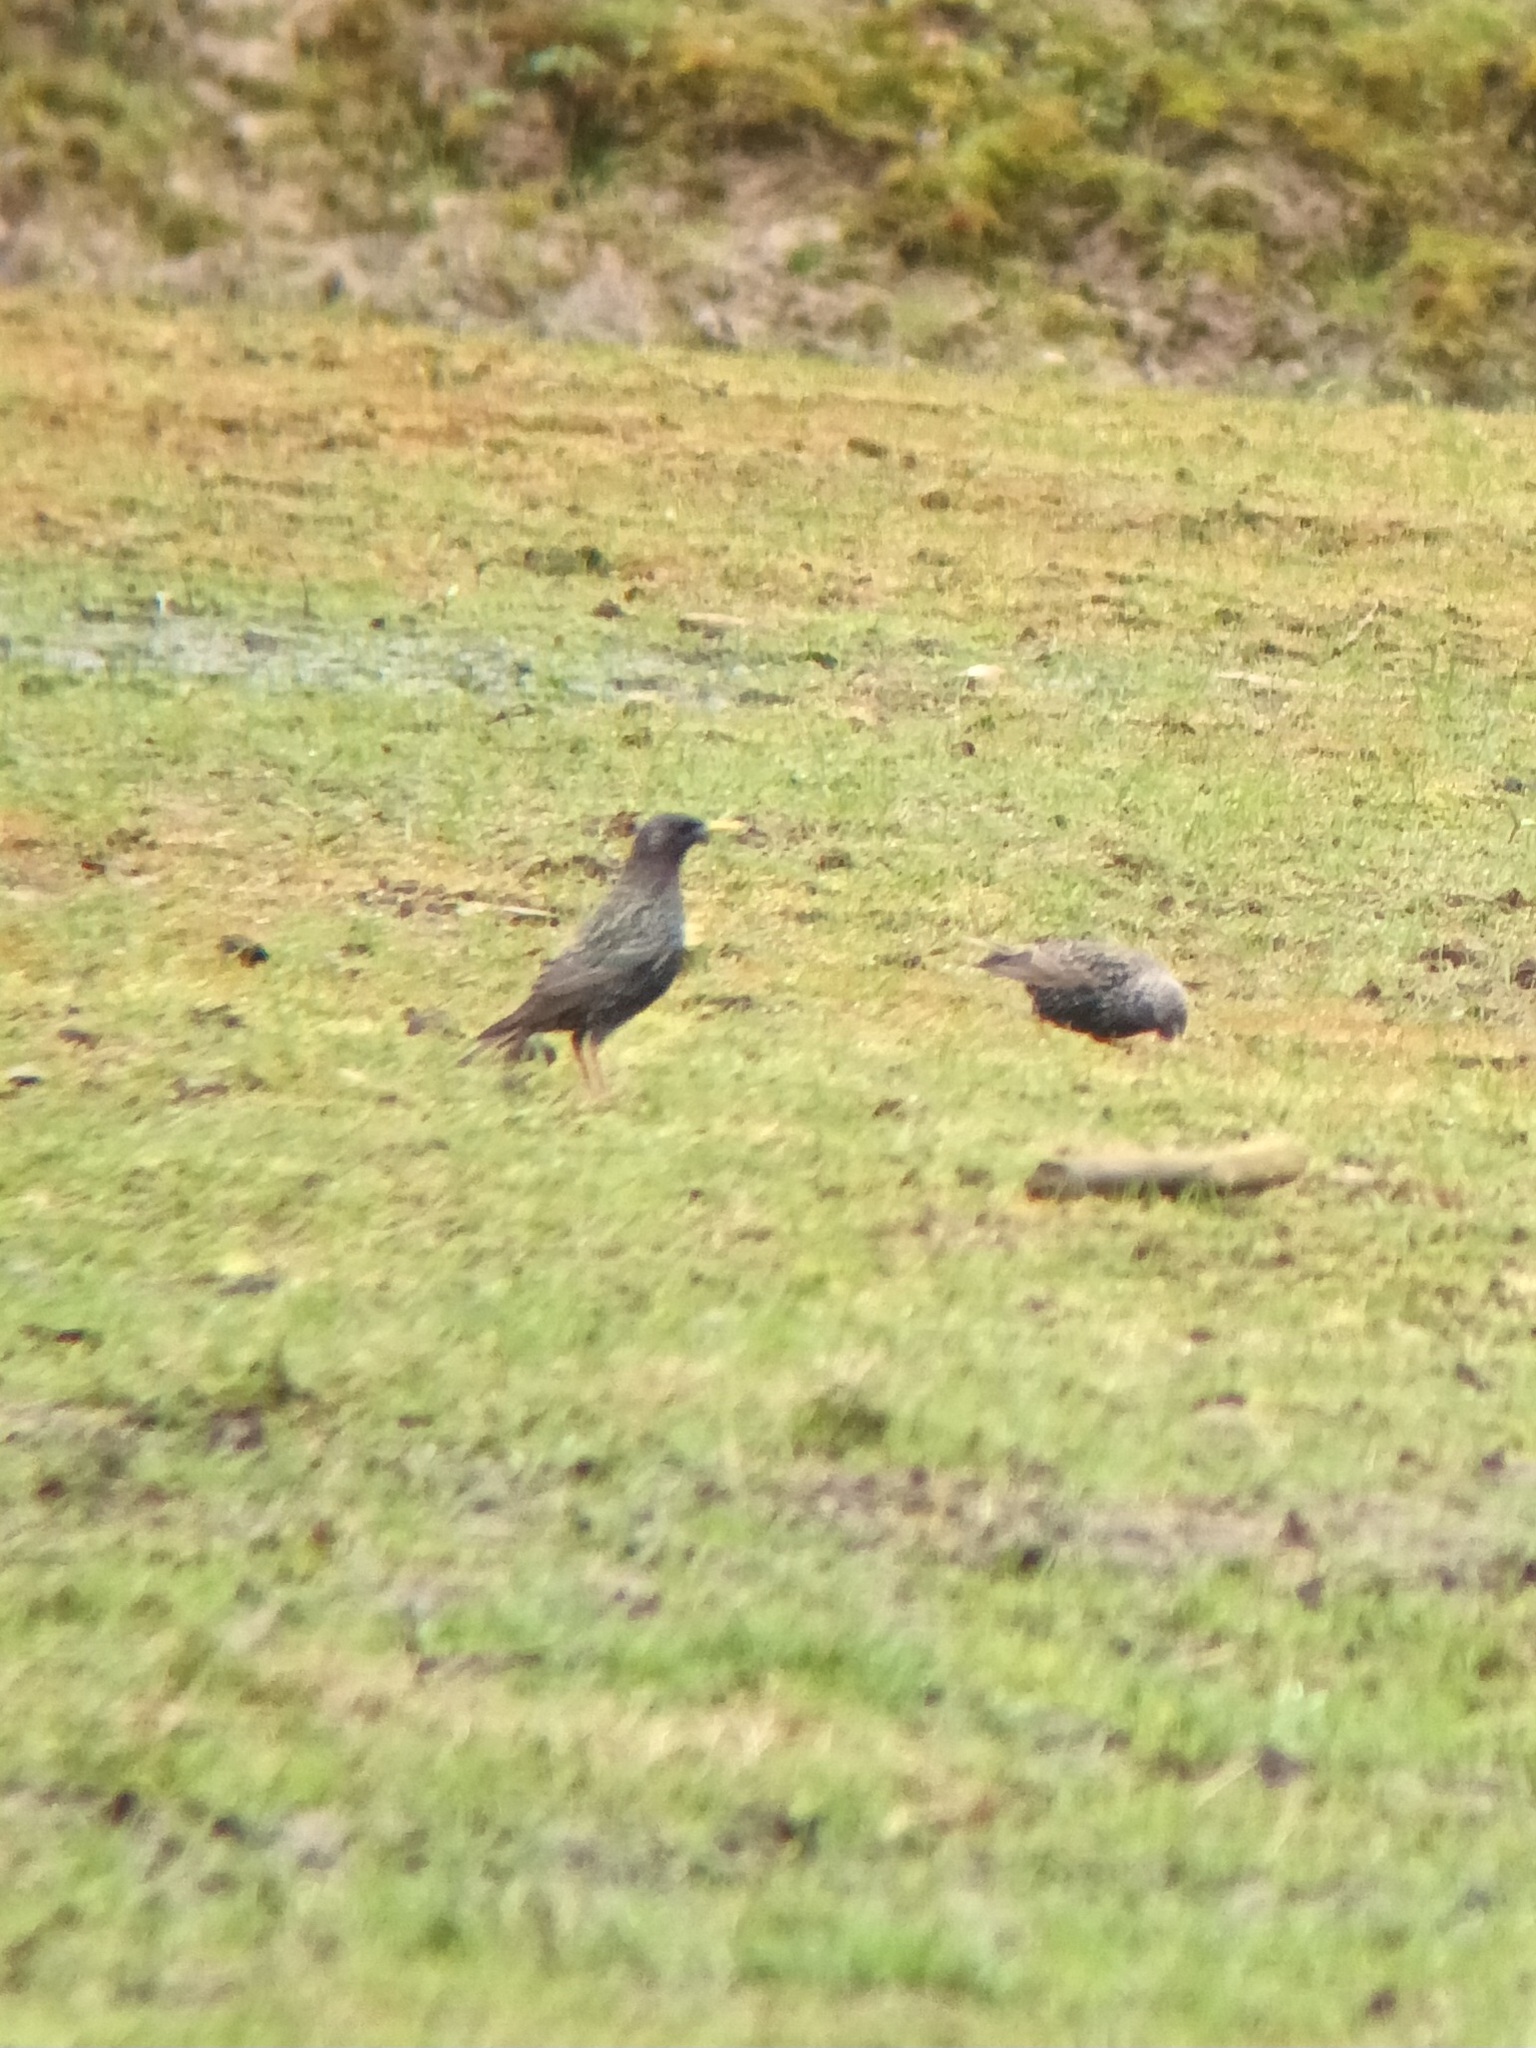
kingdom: Animalia
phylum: Chordata
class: Aves
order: Passeriformes
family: Sturnidae
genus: Sturnus
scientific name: Sturnus vulgaris
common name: Common starling
